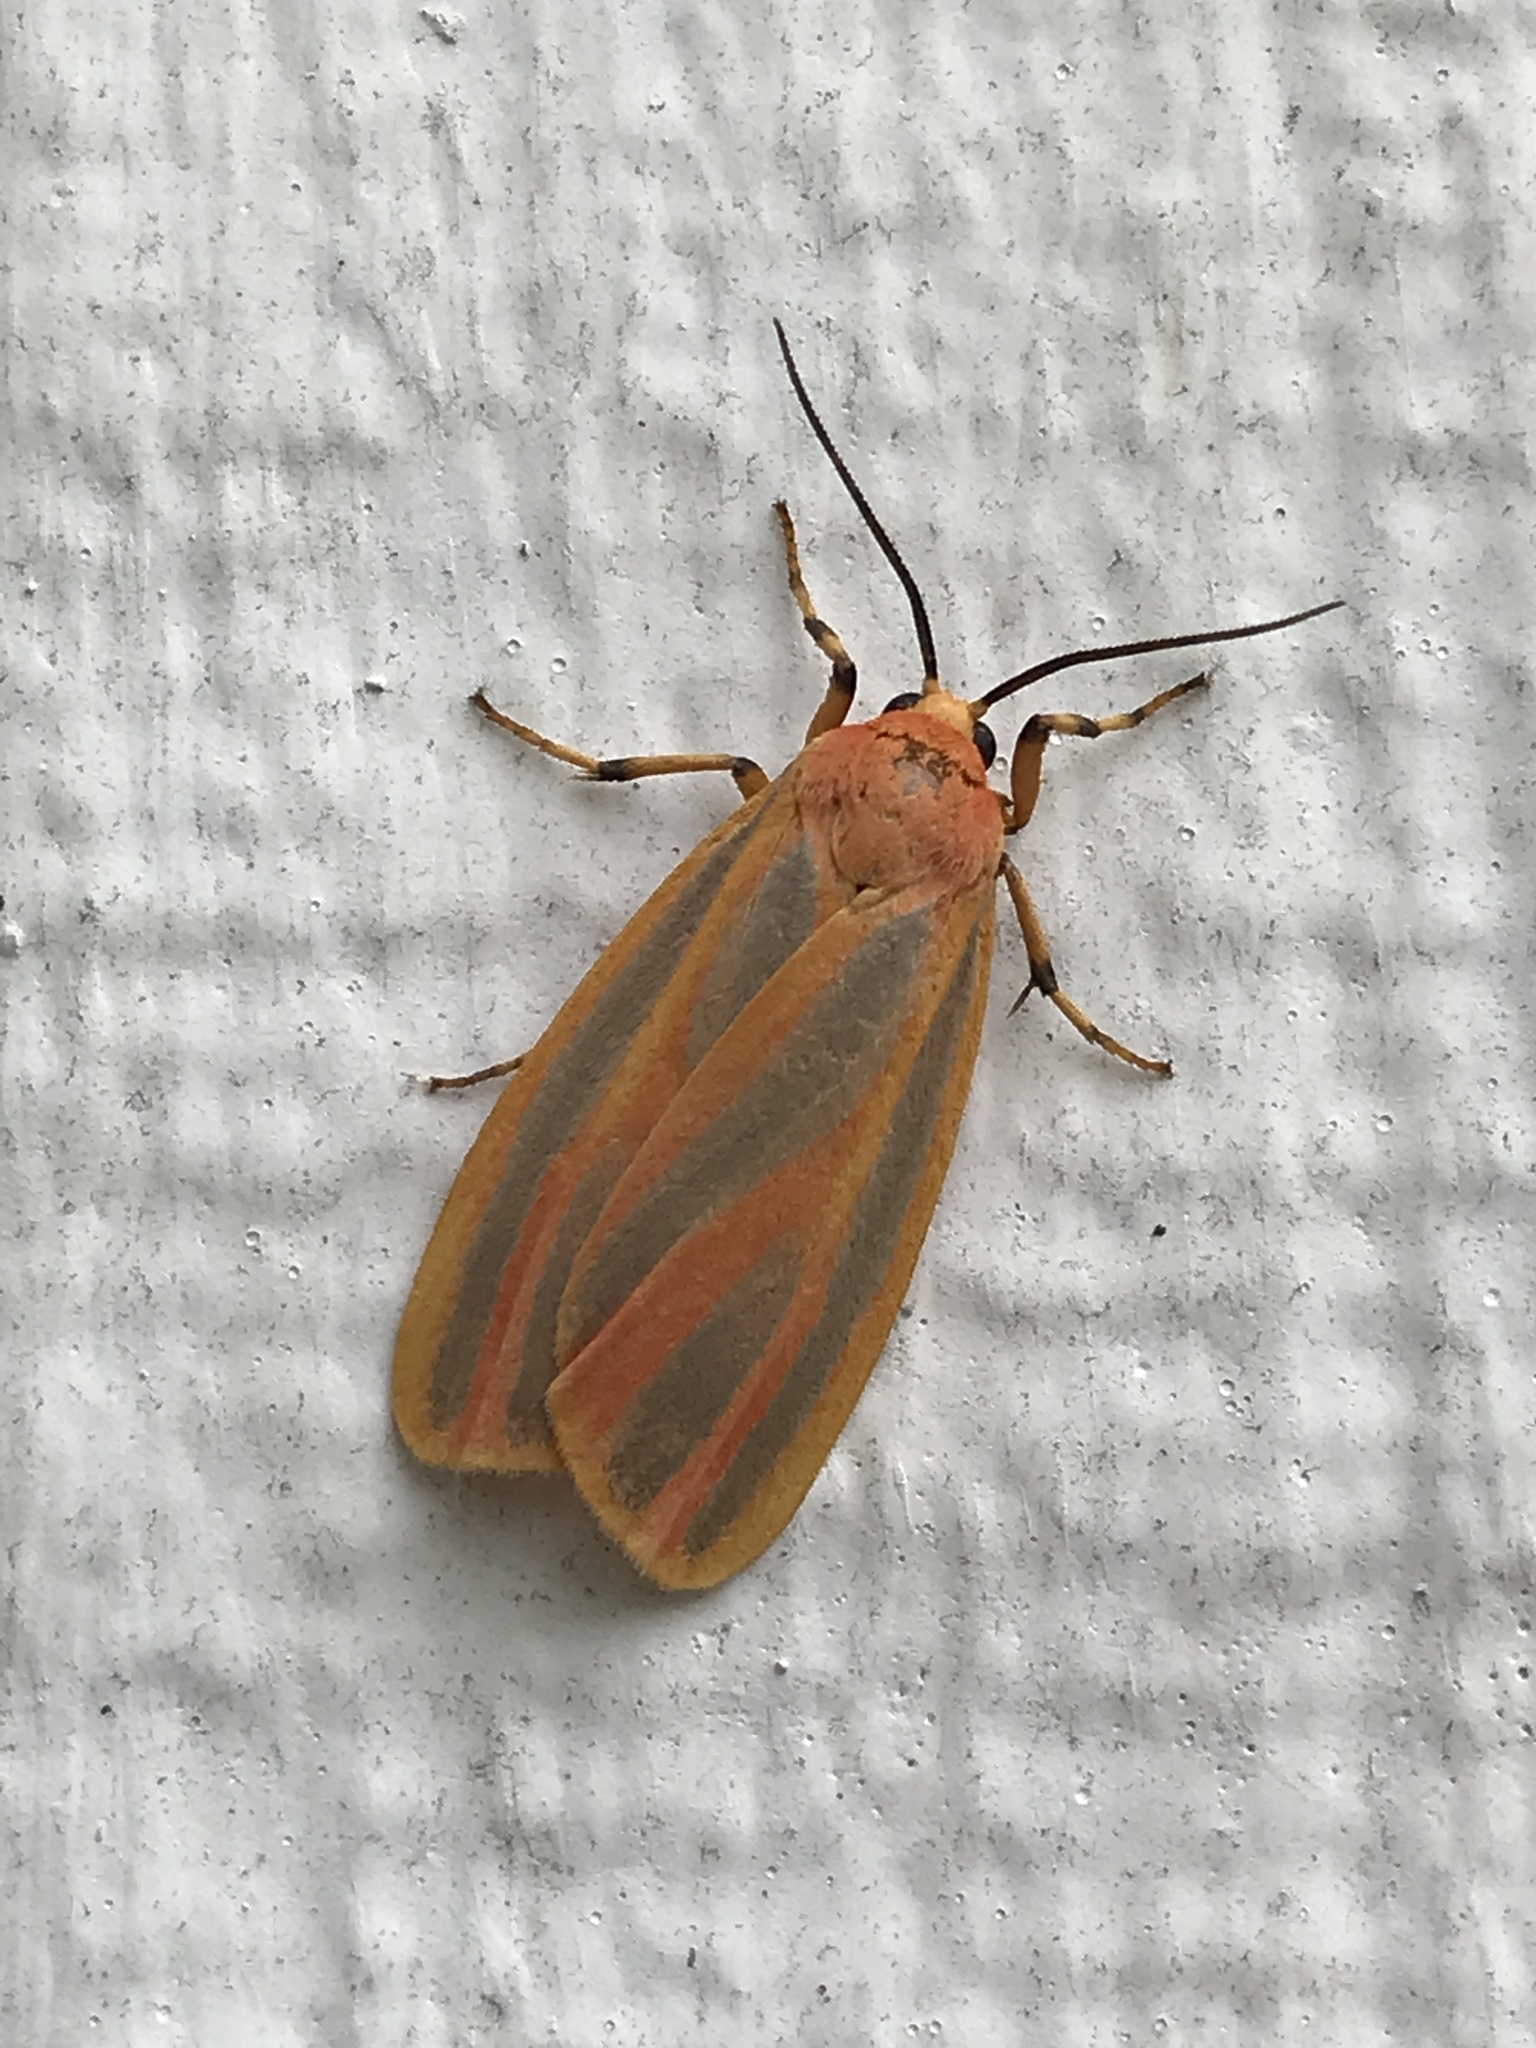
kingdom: Animalia
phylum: Arthropoda
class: Insecta
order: Lepidoptera
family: Erebidae
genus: Hypoprepia
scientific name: Hypoprepia fucosa
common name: Painted lichen moth
